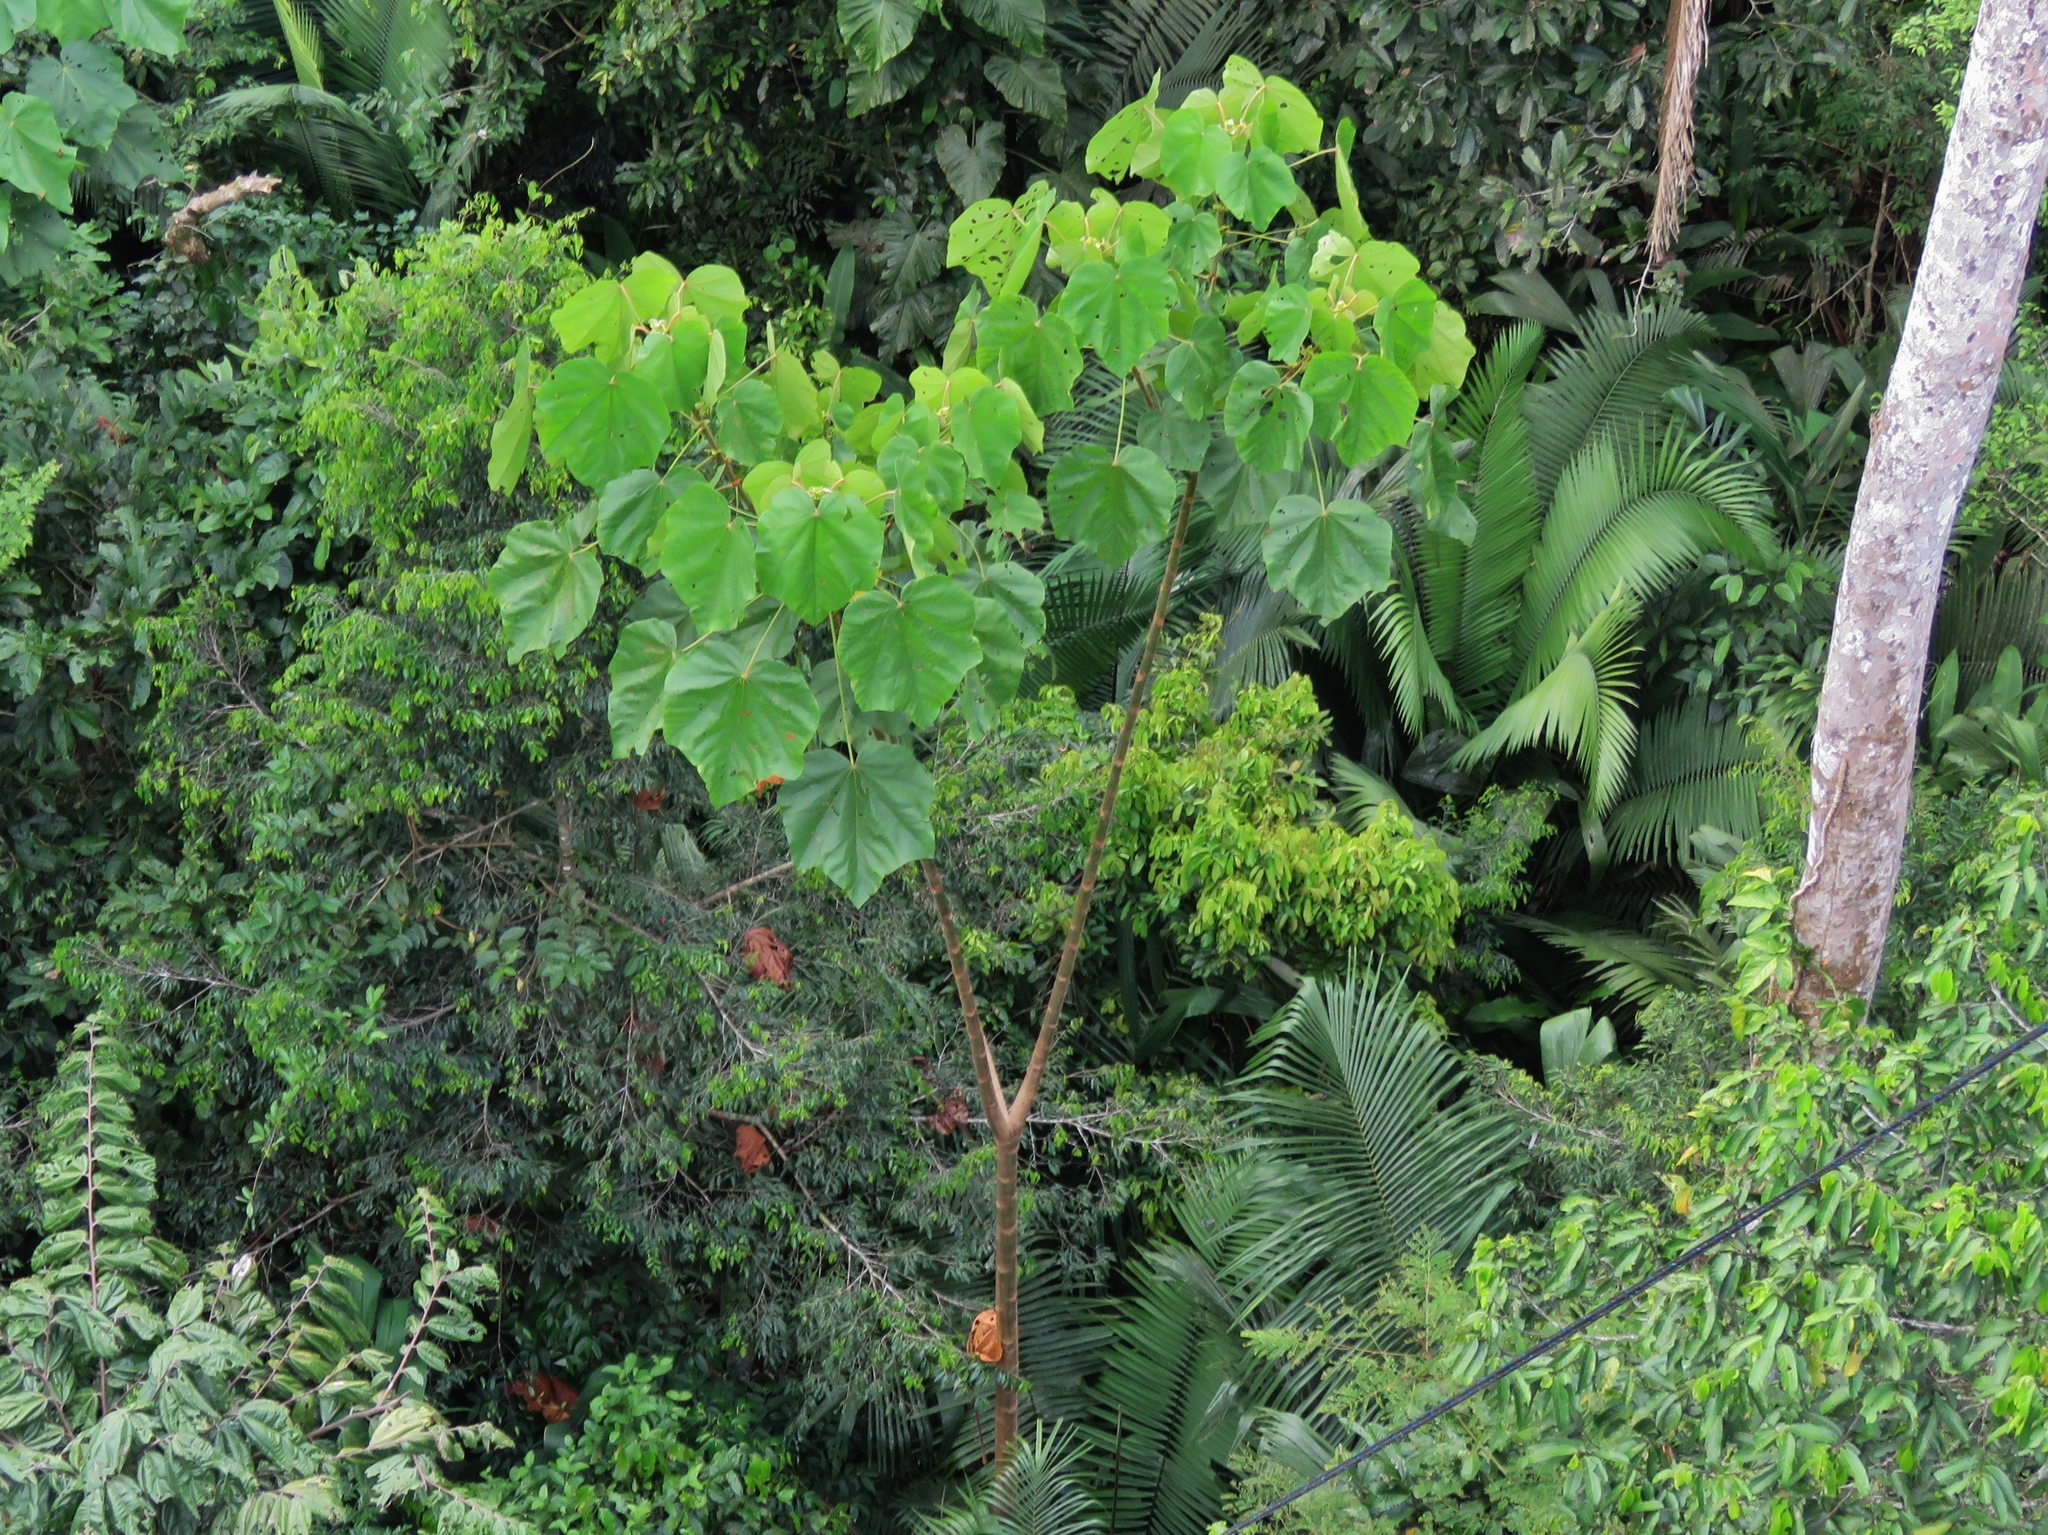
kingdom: Plantae
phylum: Tracheophyta
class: Magnoliopsida
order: Malvales
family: Malvaceae
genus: Ochroma
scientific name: Ochroma pyramidale
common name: Balsa
